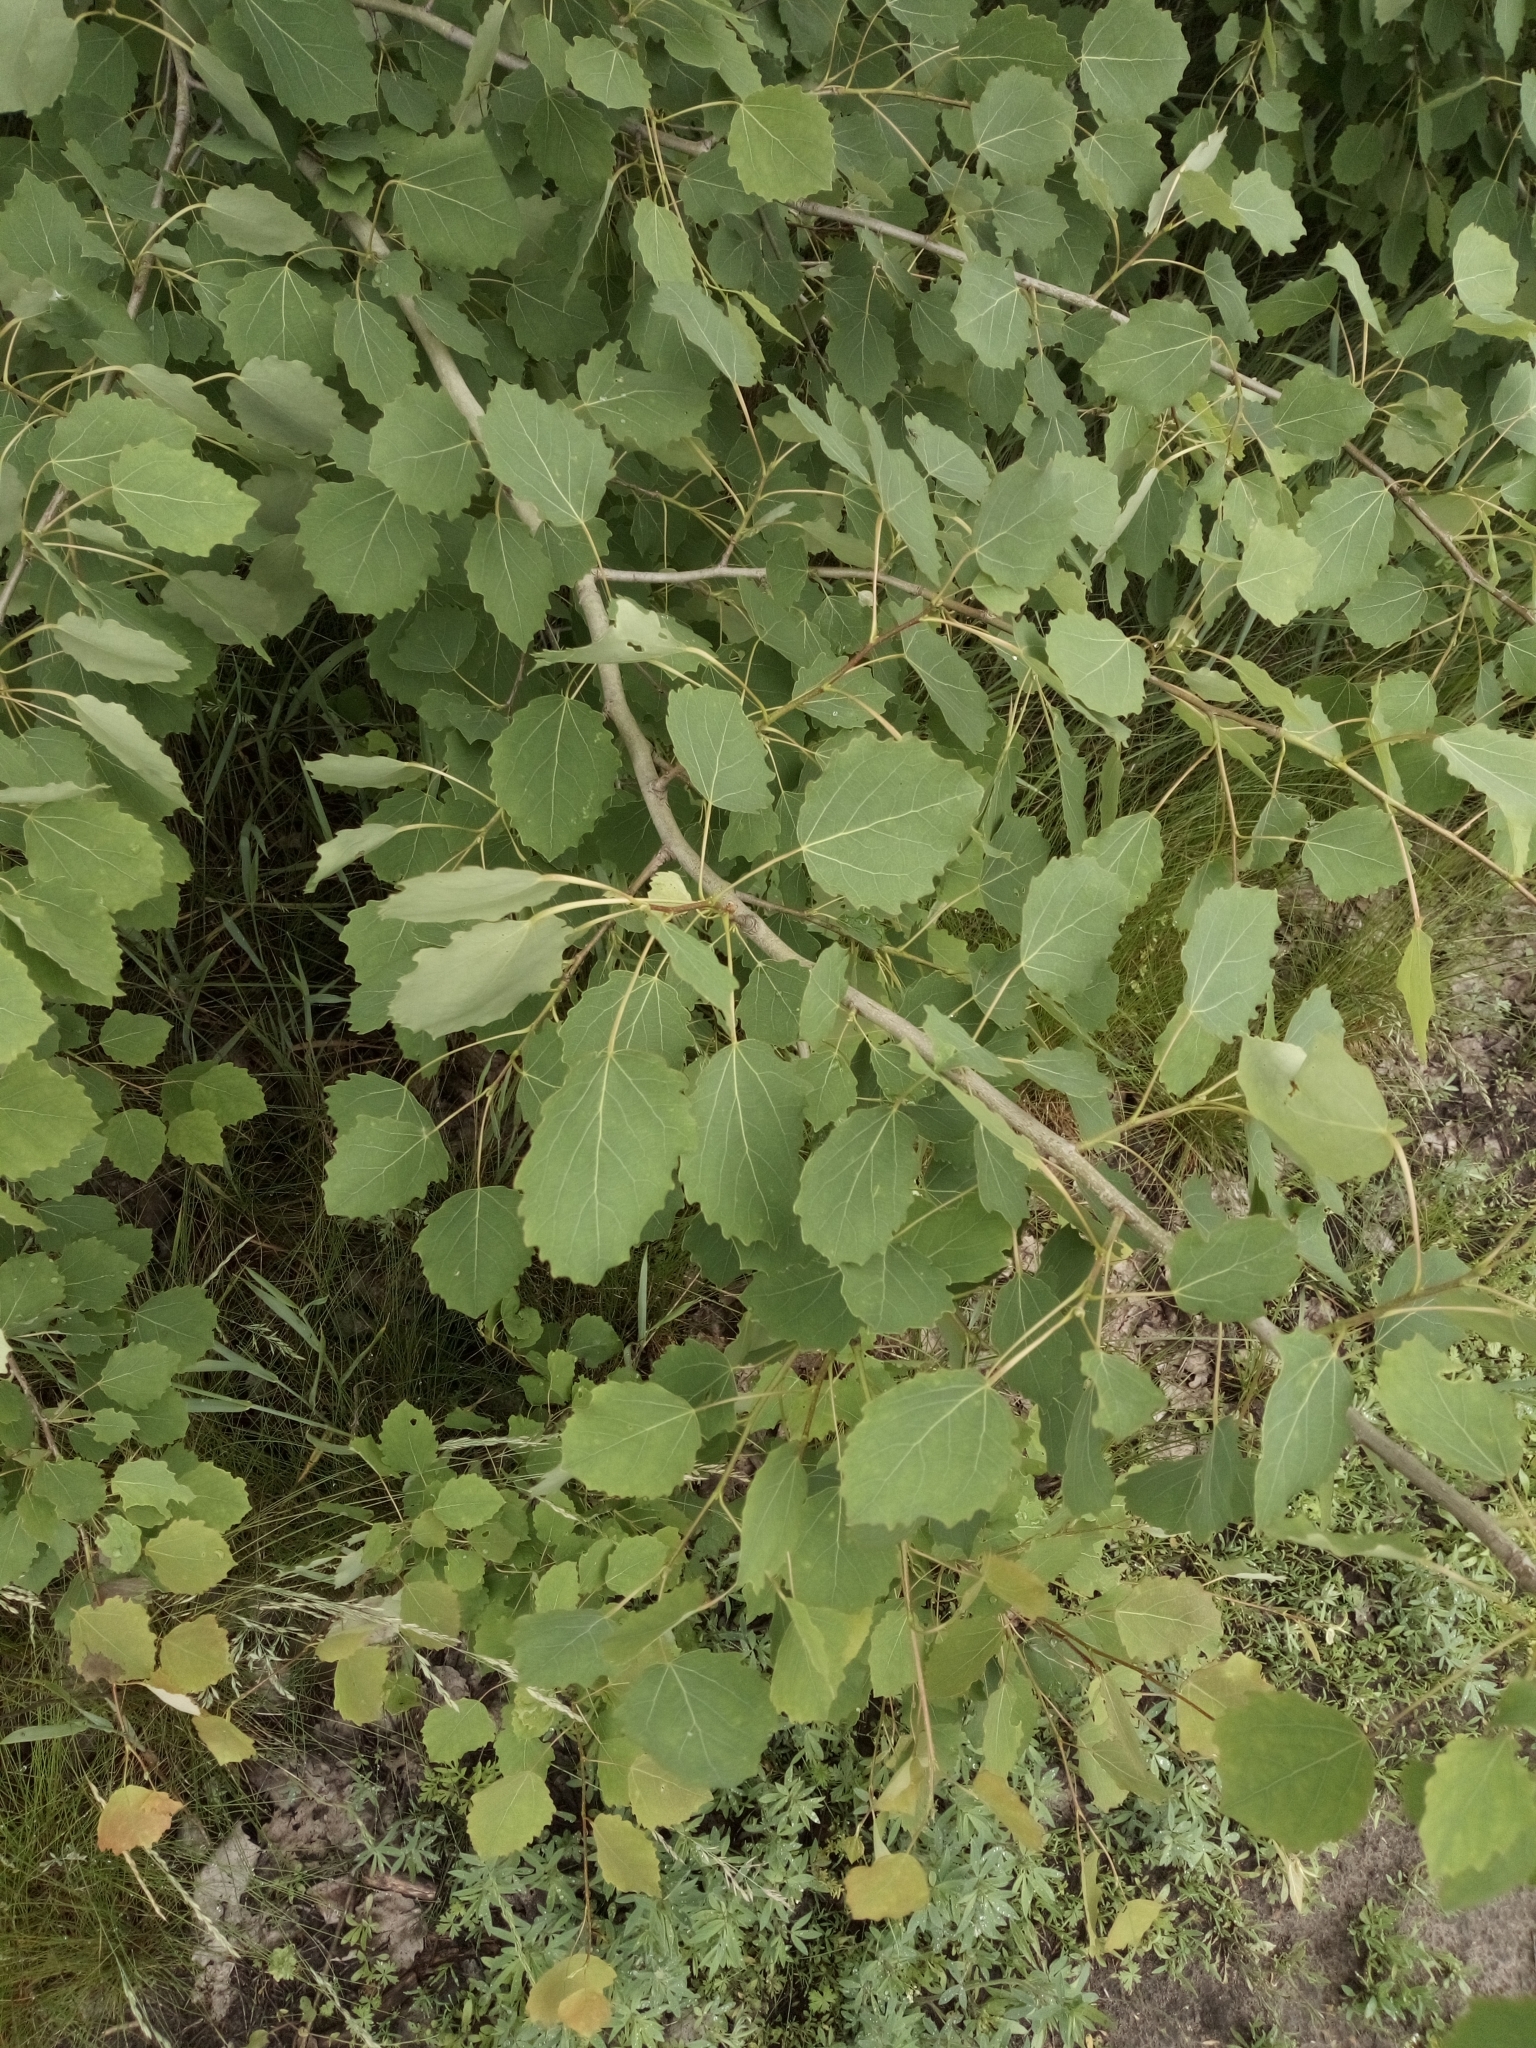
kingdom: Plantae
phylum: Tracheophyta
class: Magnoliopsida
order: Malpighiales
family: Salicaceae
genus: Populus
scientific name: Populus tremula
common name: European aspen
